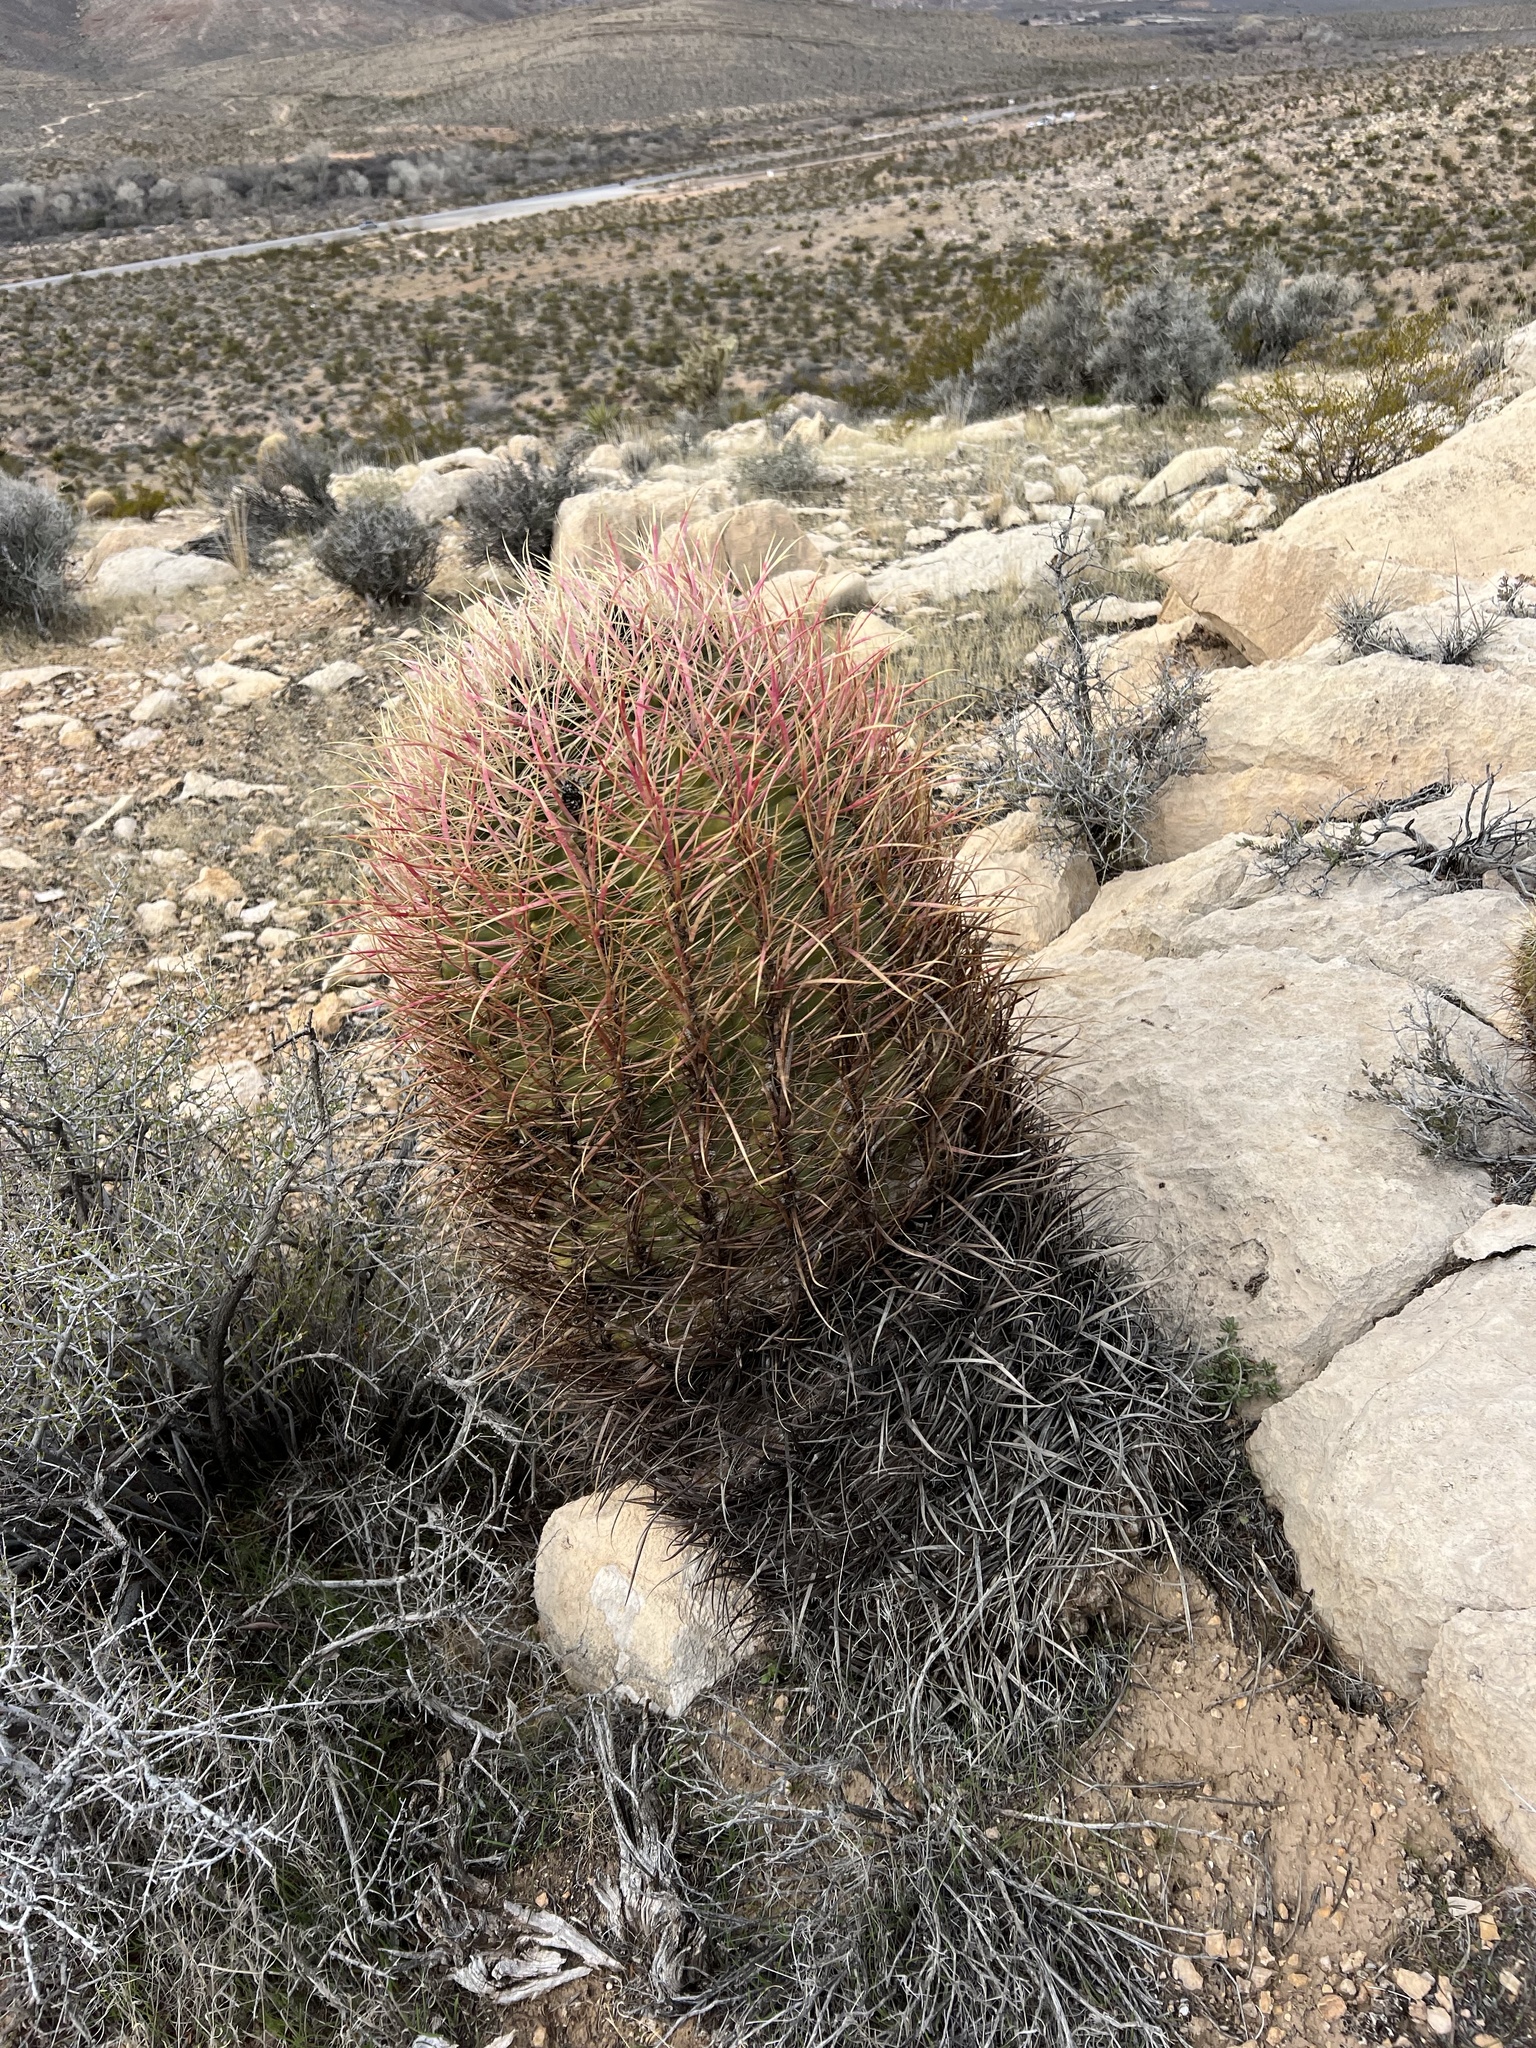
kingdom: Plantae
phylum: Tracheophyta
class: Magnoliopsida
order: Caryophyllales
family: Cactaceae
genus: Ferocactus
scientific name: Ferocactus cylindraceus
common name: California barrel cactus
